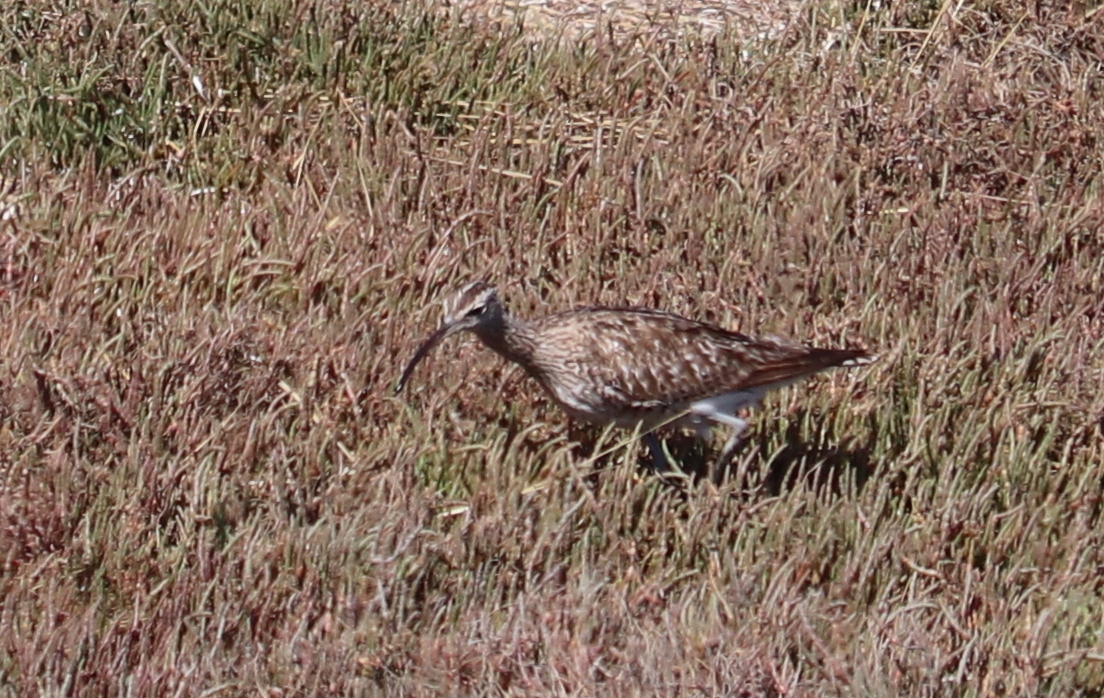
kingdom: Animalia
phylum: Chordata
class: Aves
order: Charadriiformes
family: Scolopacidae
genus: Numenius
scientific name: Numenius phaeopus
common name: Whimbrel
